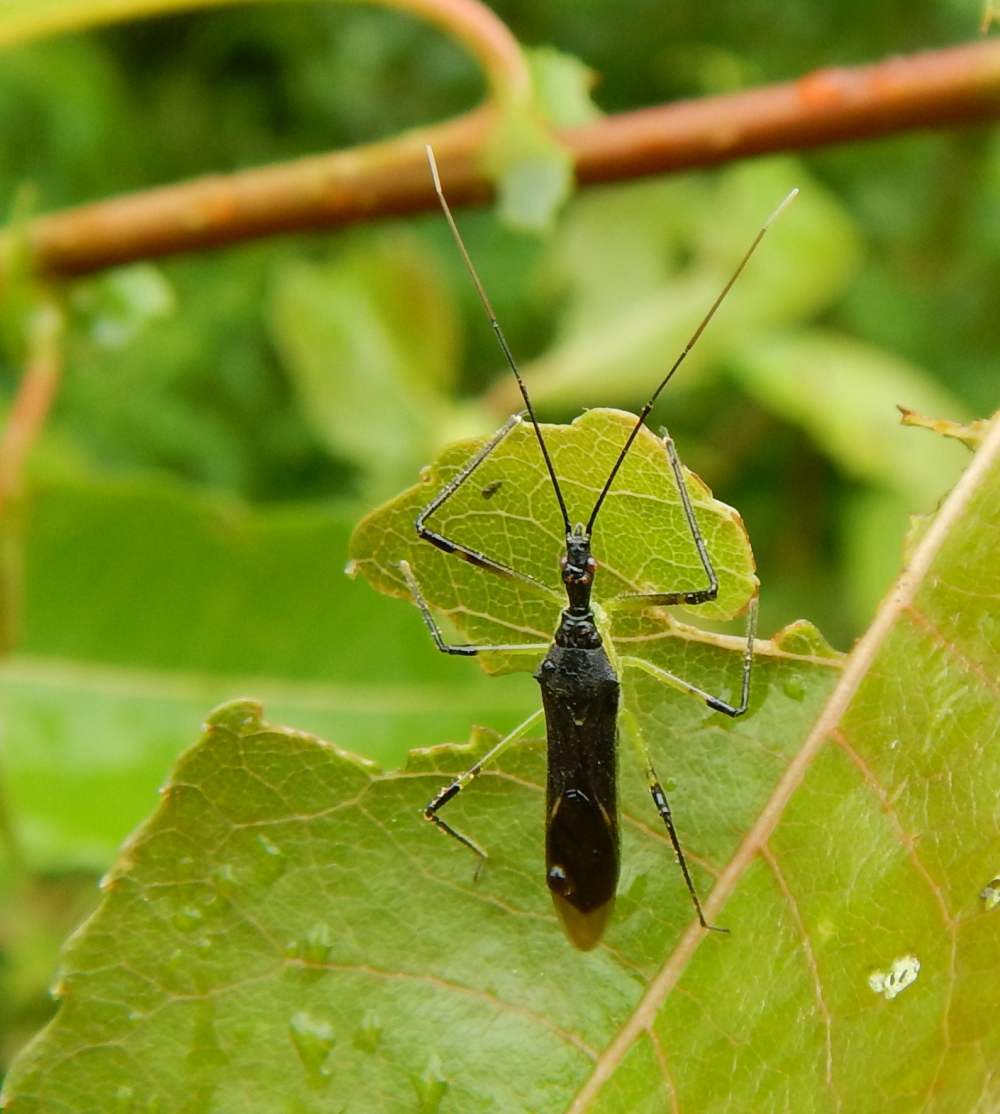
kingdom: Animalia
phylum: Arthropoda
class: Insecta
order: Hemiptera
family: Reduviidae
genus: Zelus
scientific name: Zelus luridus
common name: Pale green assassin bug
